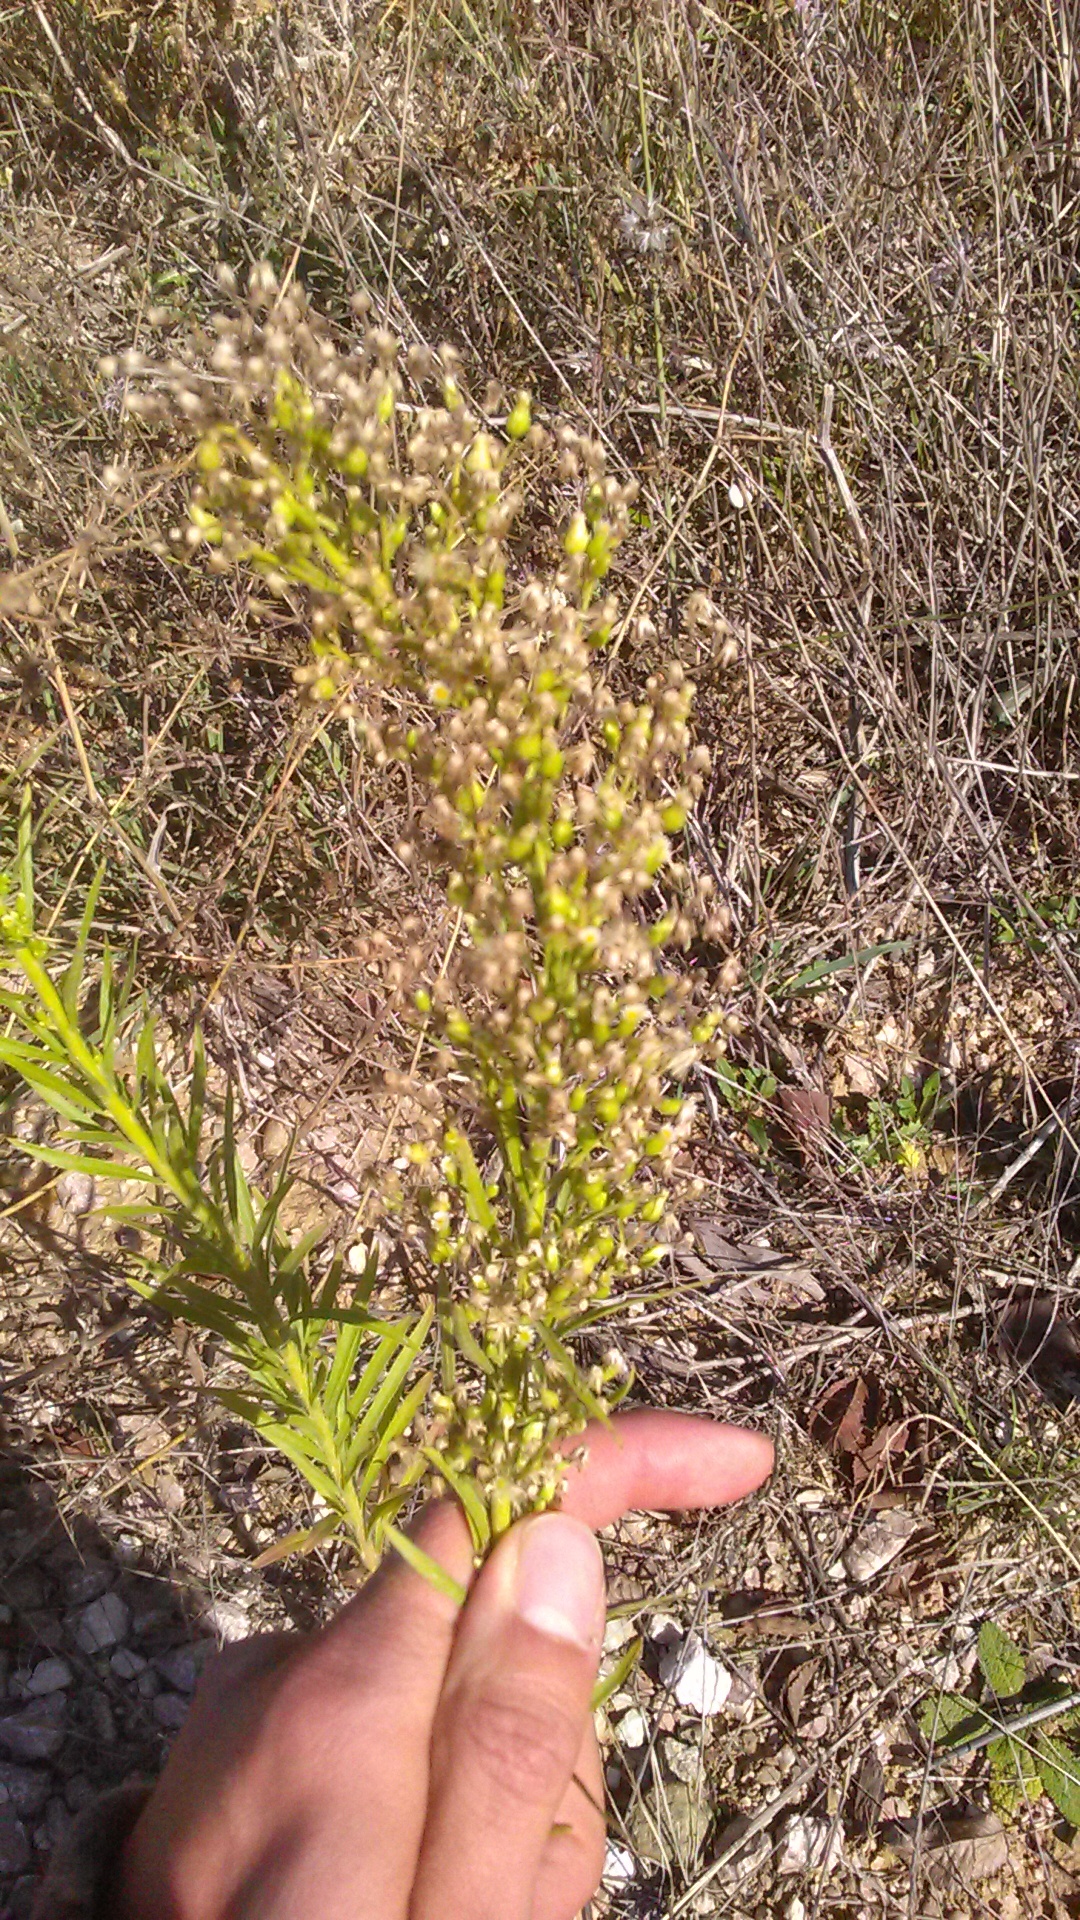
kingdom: Plantae
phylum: Tracheophyta
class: Magnoliopsida
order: Asterales
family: Asteraceae
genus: Erigeron
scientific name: Erigeron canadensis
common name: Canadian fleabane
